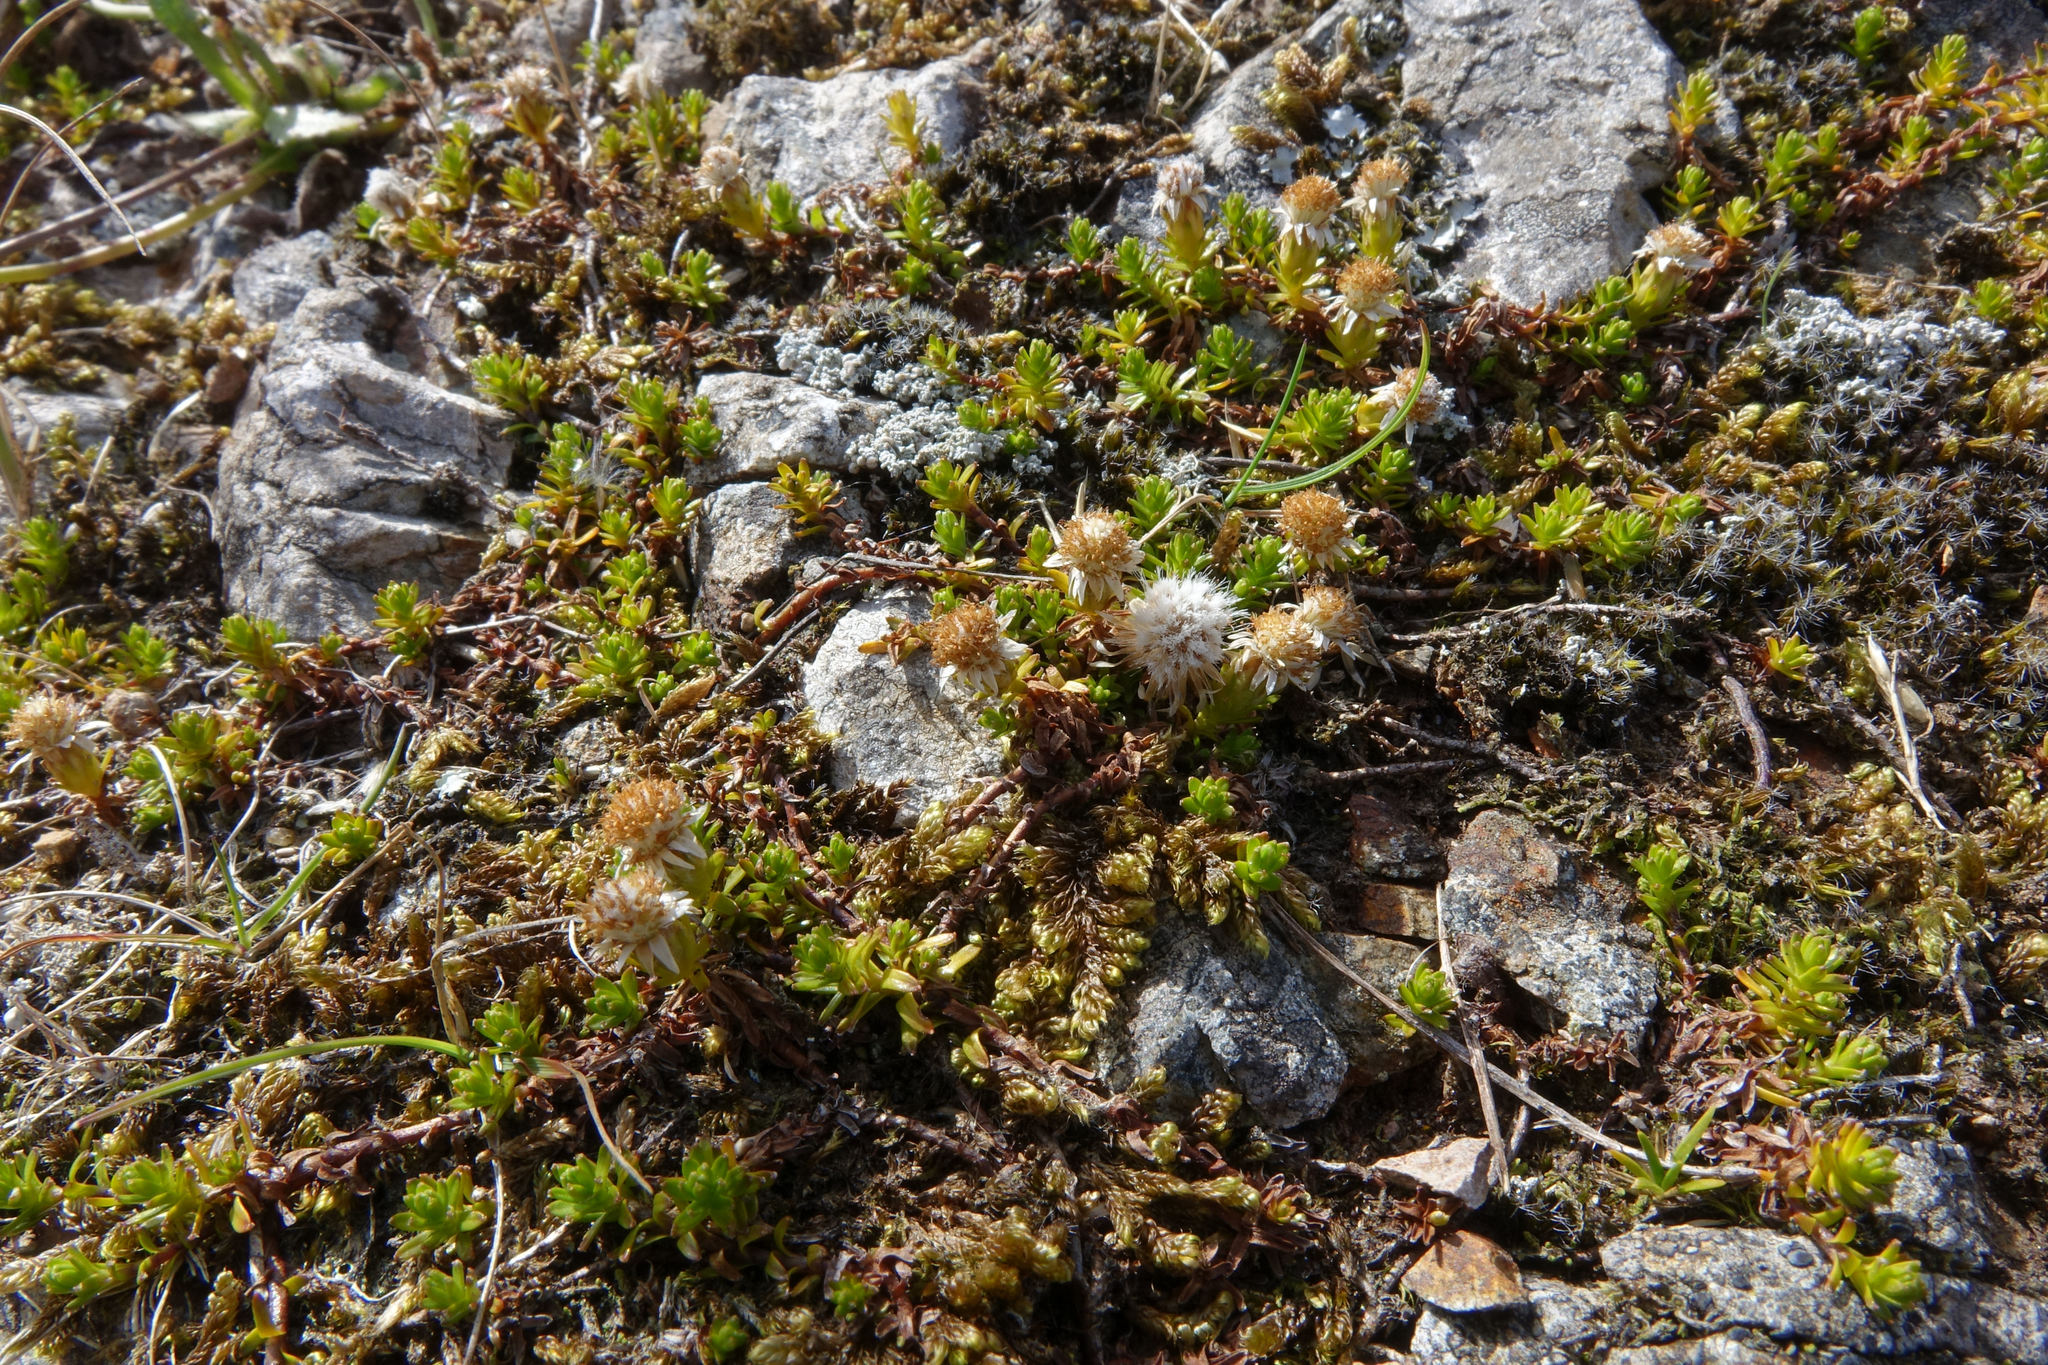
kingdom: Plantae
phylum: Tracheophyta
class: Magnoliopsida
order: Asterales
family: Asteraceae
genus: Raoulia
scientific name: Raoulia glabra
